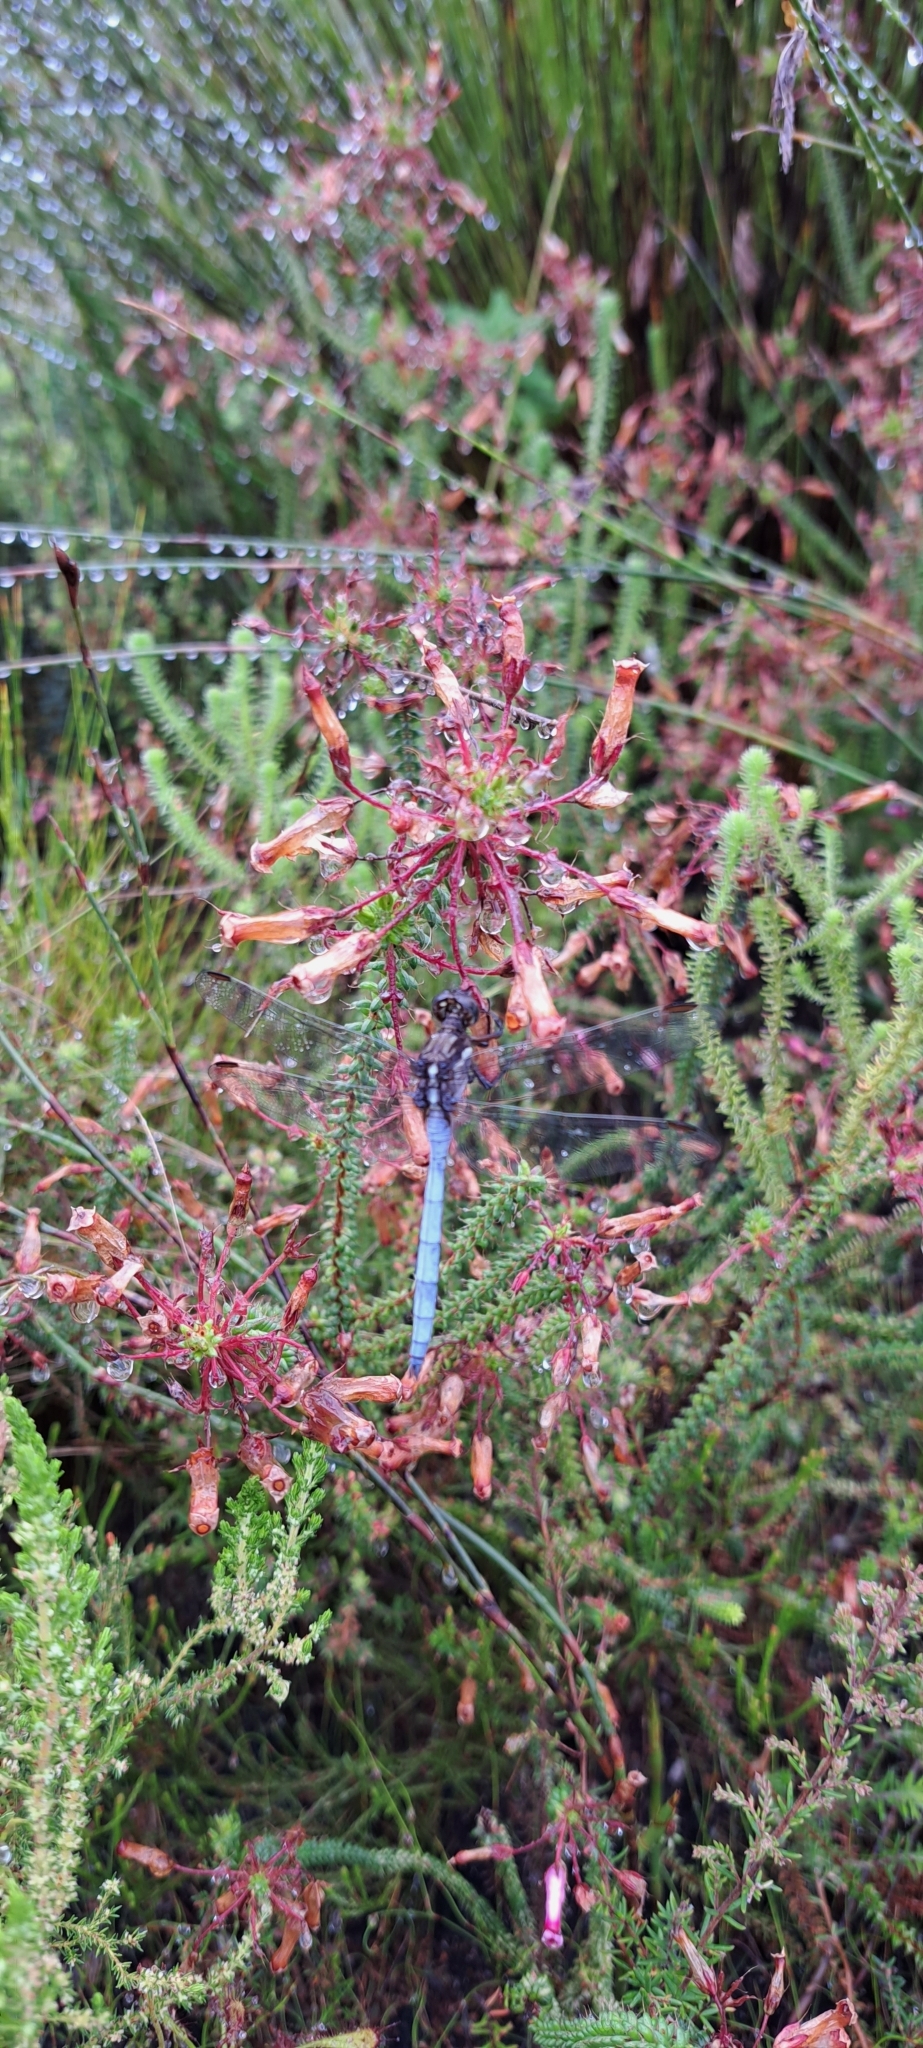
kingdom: Animalia
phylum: Arthropoda
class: Insecta
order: Odonata
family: Libellulidae
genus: Orthetrum
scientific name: Orthetrum julia
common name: Julia skimmer
